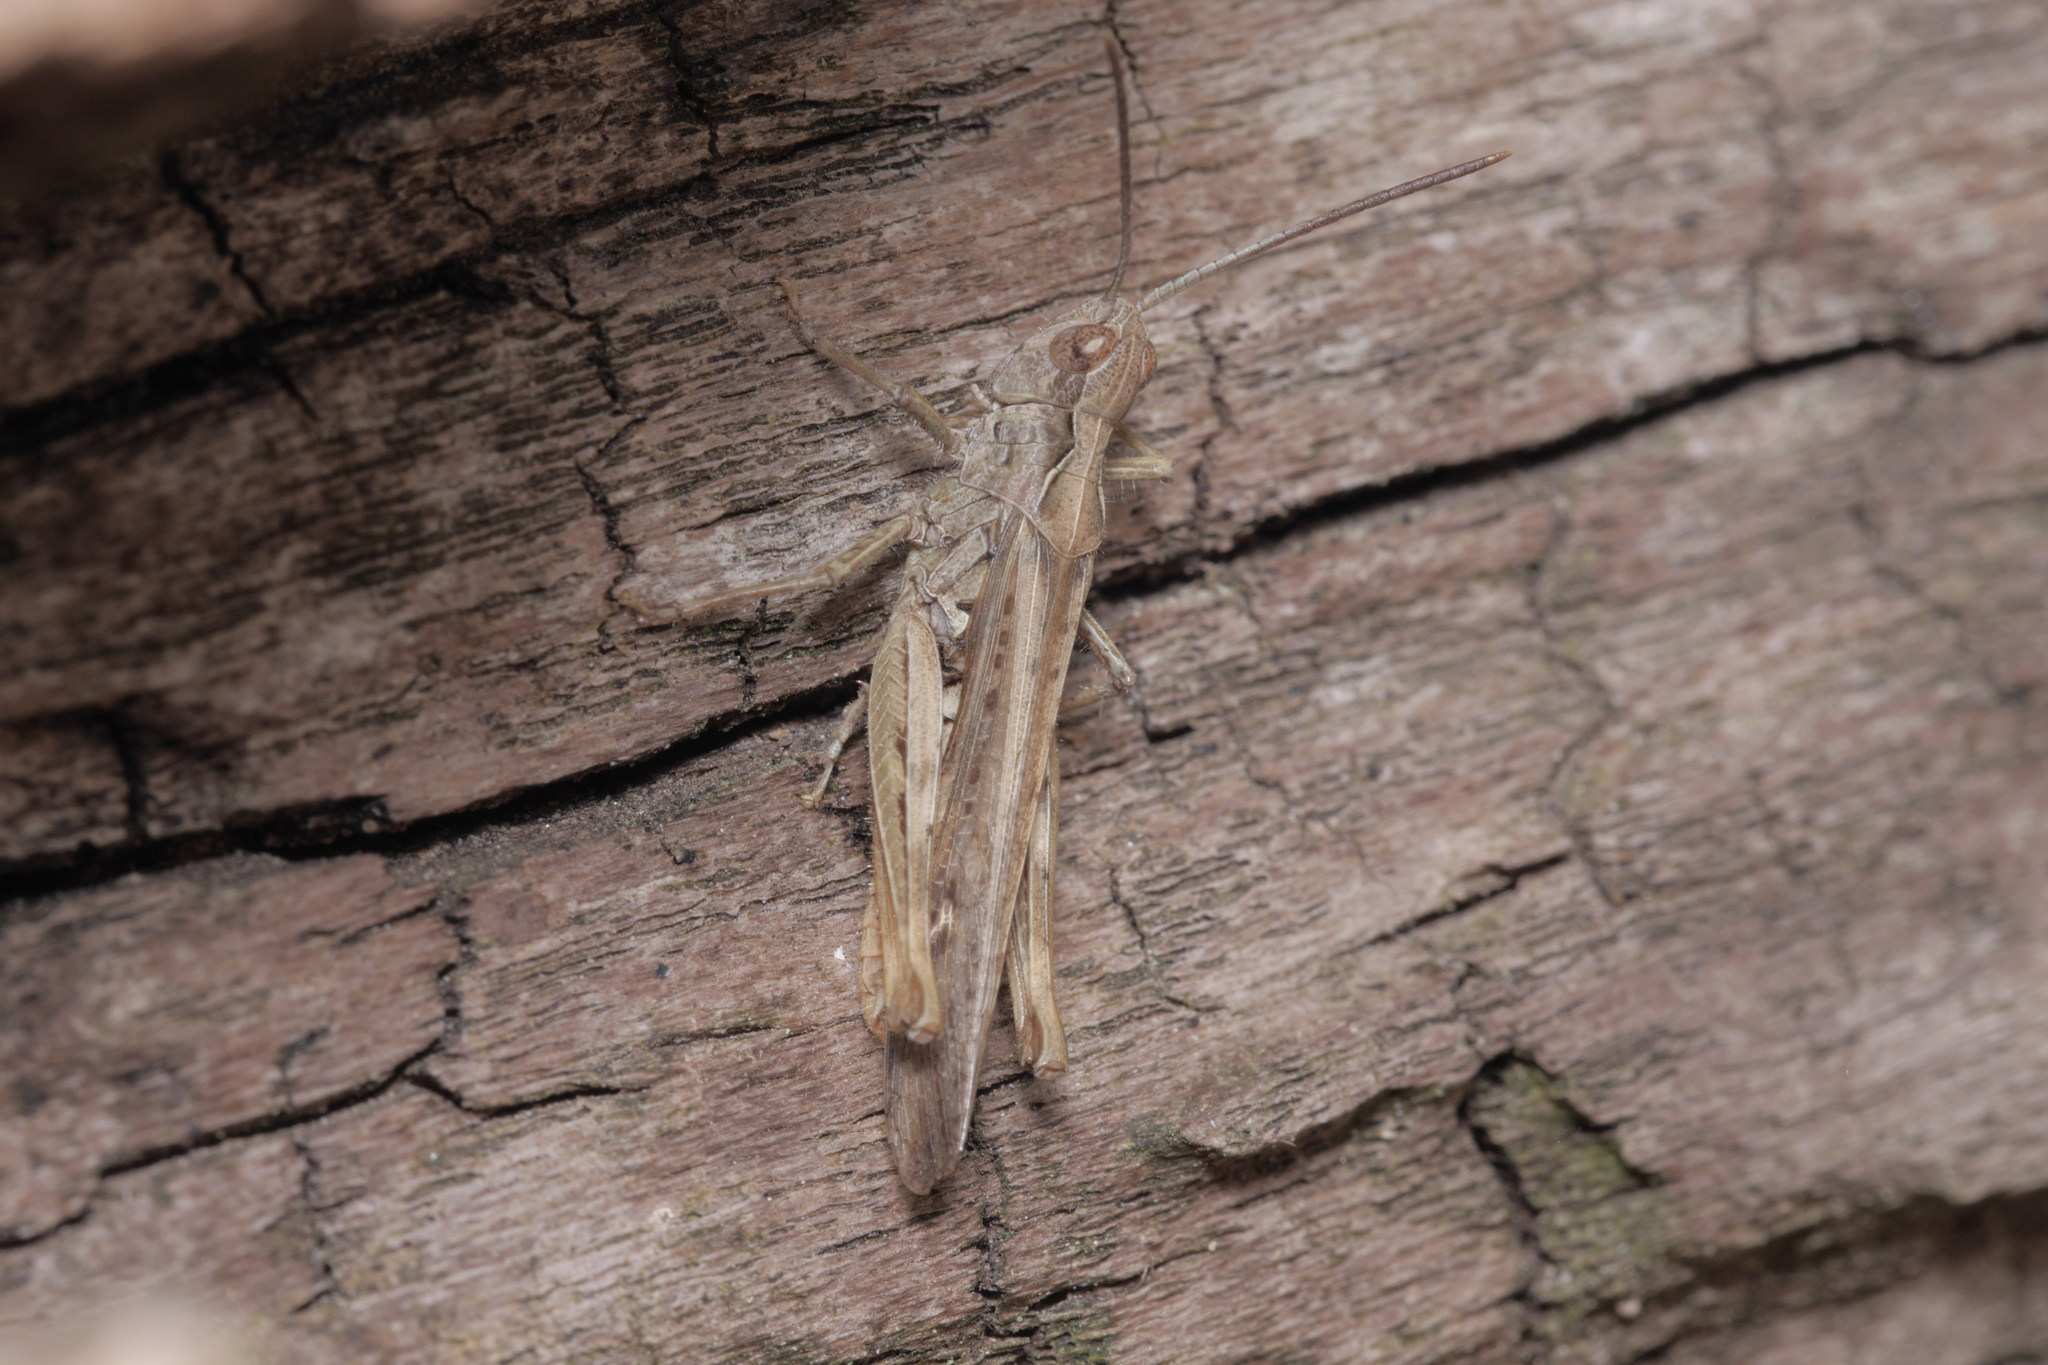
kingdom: Animalia
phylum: Arthropoda
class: Insecta
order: Orthoptera
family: Acrididae
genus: Chorthippus
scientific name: Chorthippus brunneus
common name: Field grasshopper
